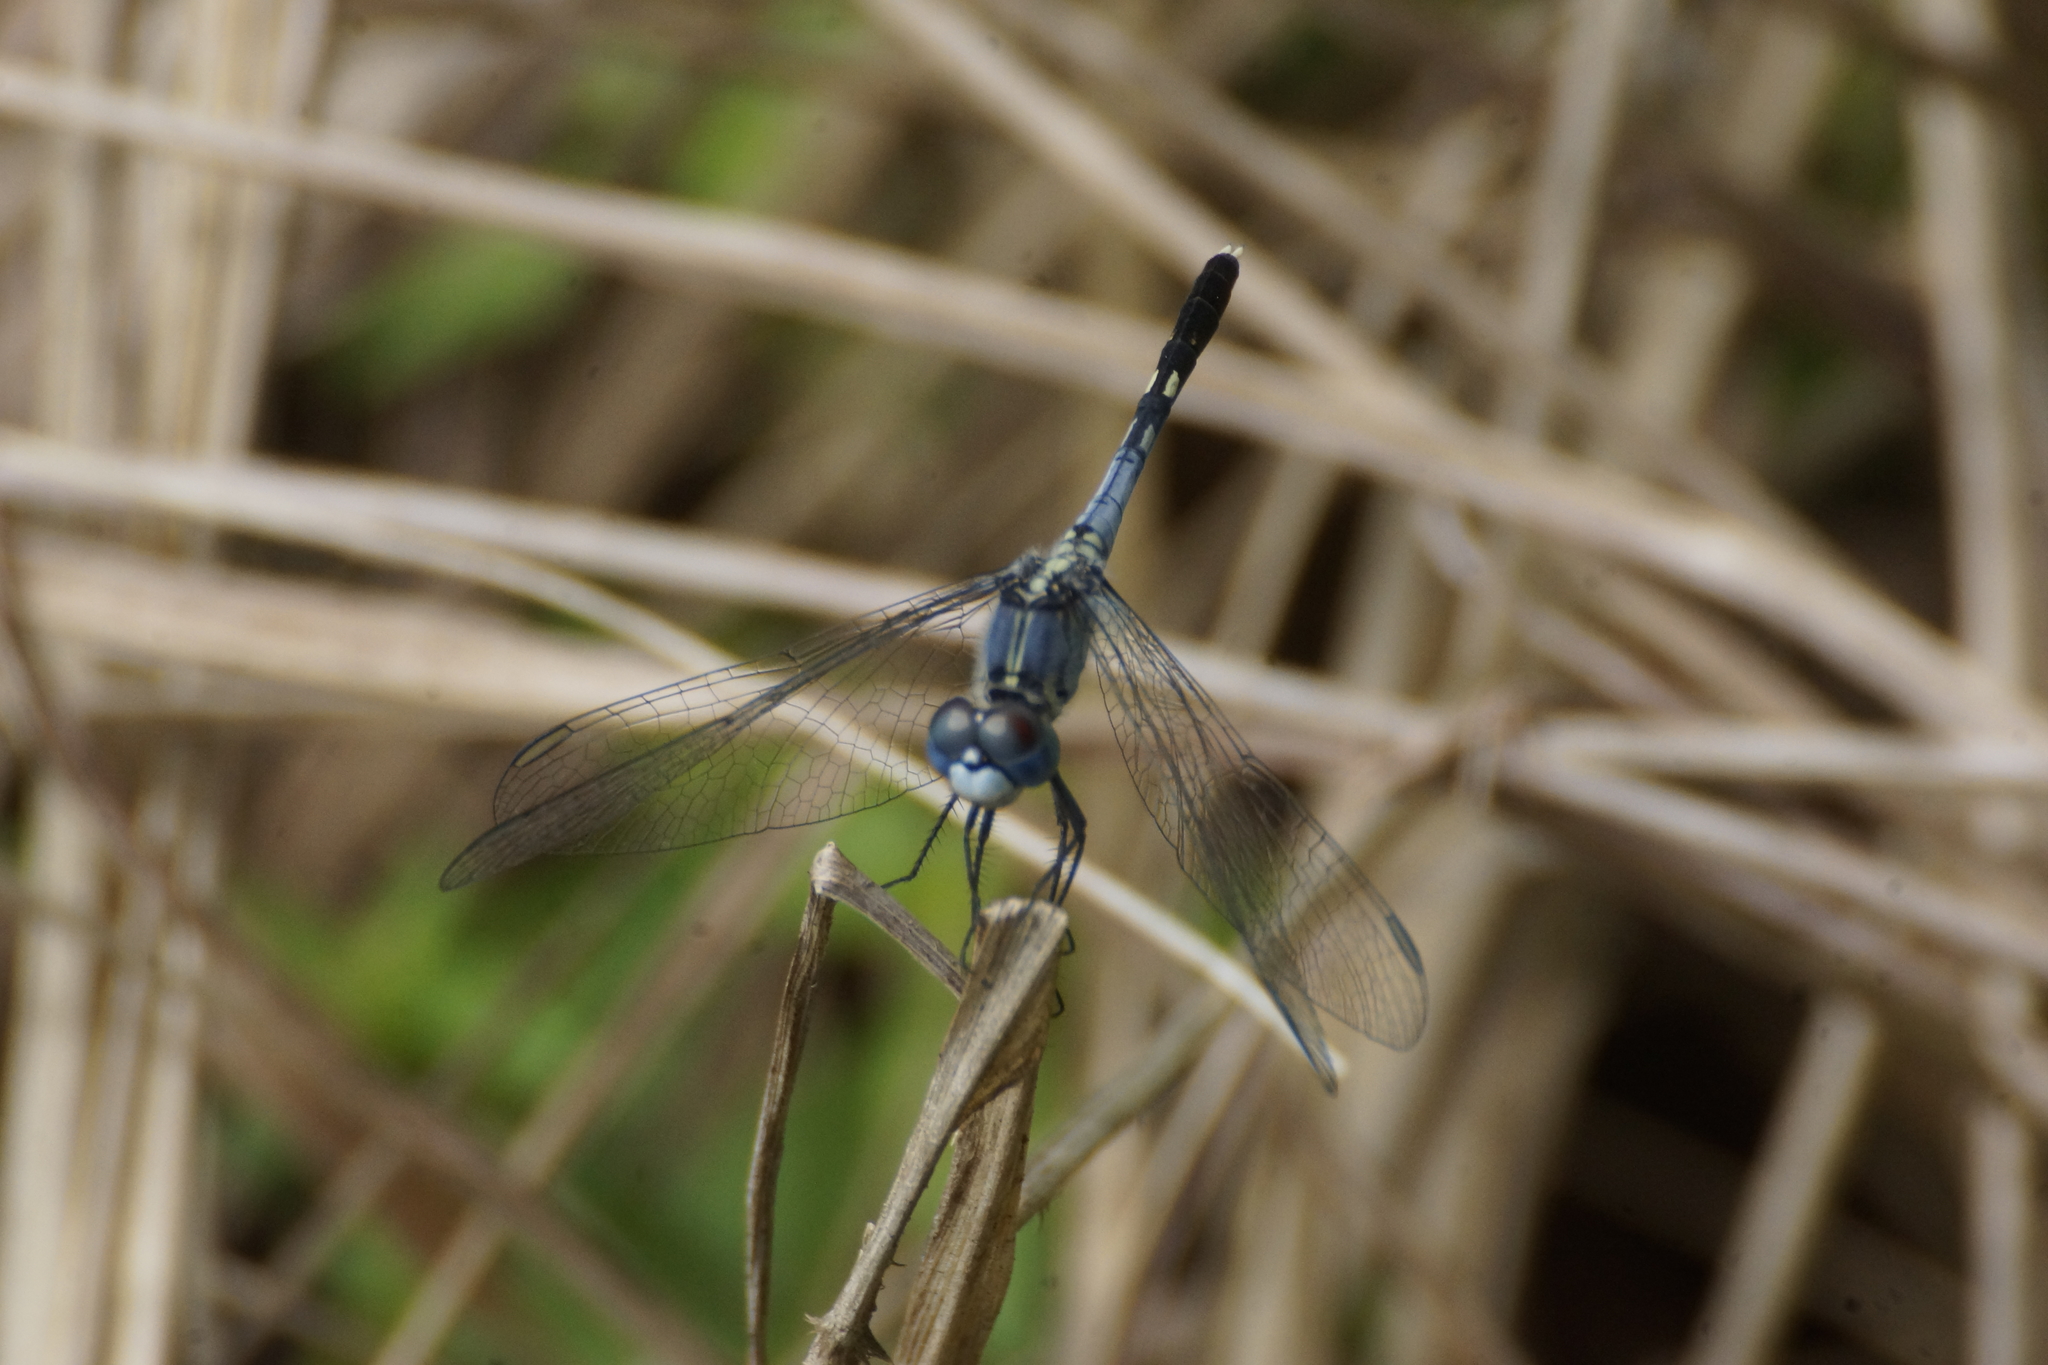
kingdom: Animalia
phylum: Arthropoda
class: Insecta
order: Odonata
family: Libellulidae
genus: Diplacodes
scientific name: Diplacodes trivialis
